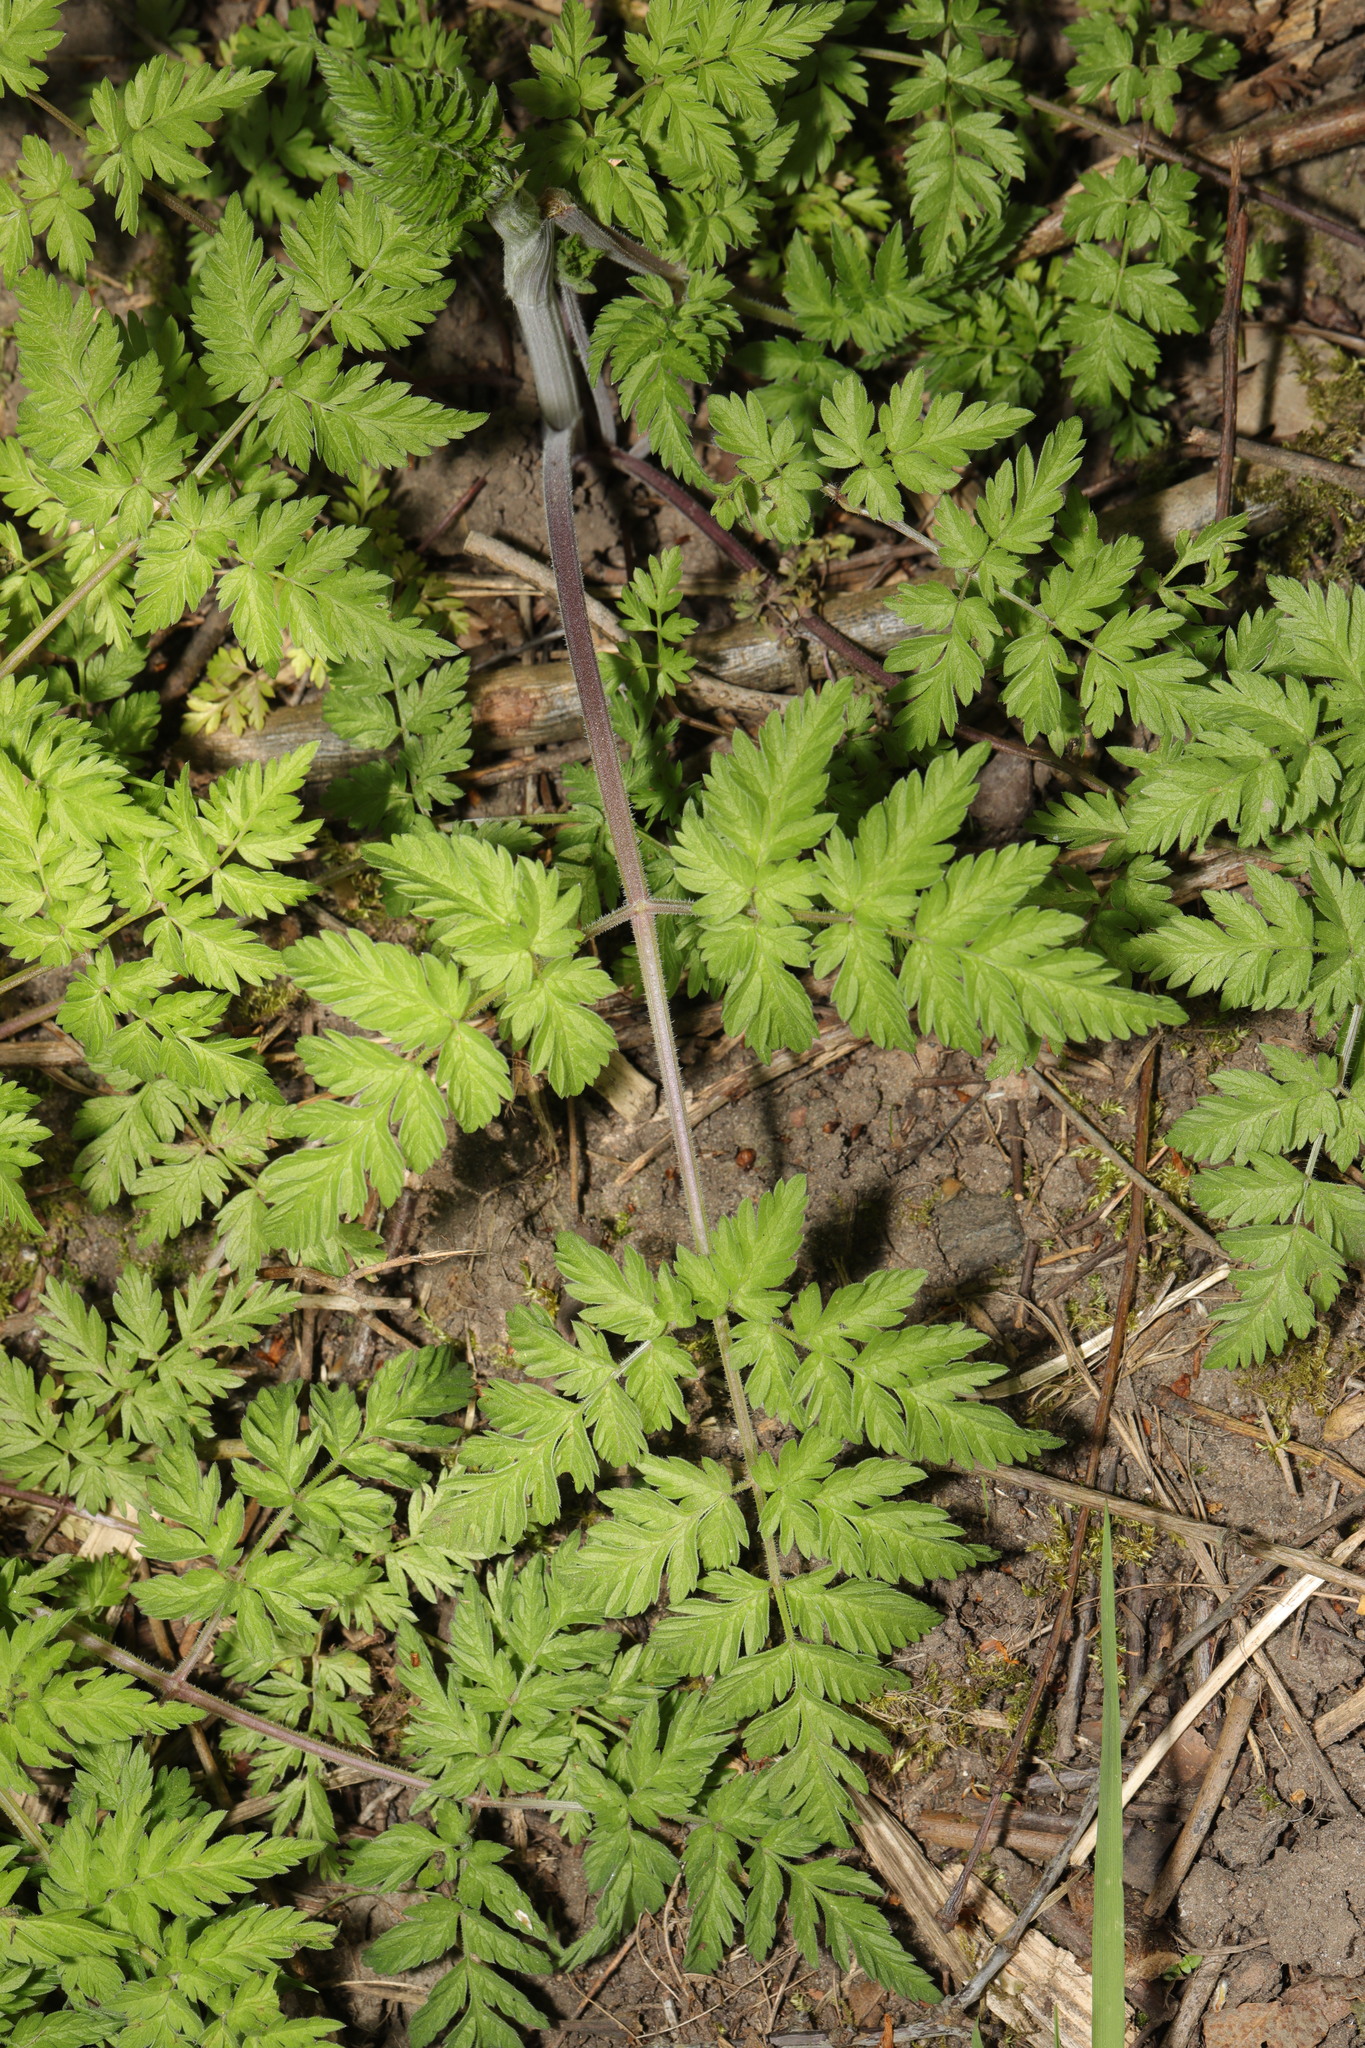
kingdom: Plantae
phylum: Tracheophyta
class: Magnoliopsida
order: Apiales
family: Apiaceae
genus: Anthriscus
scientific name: Anthriscus sylvestris
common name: Cow parsley
